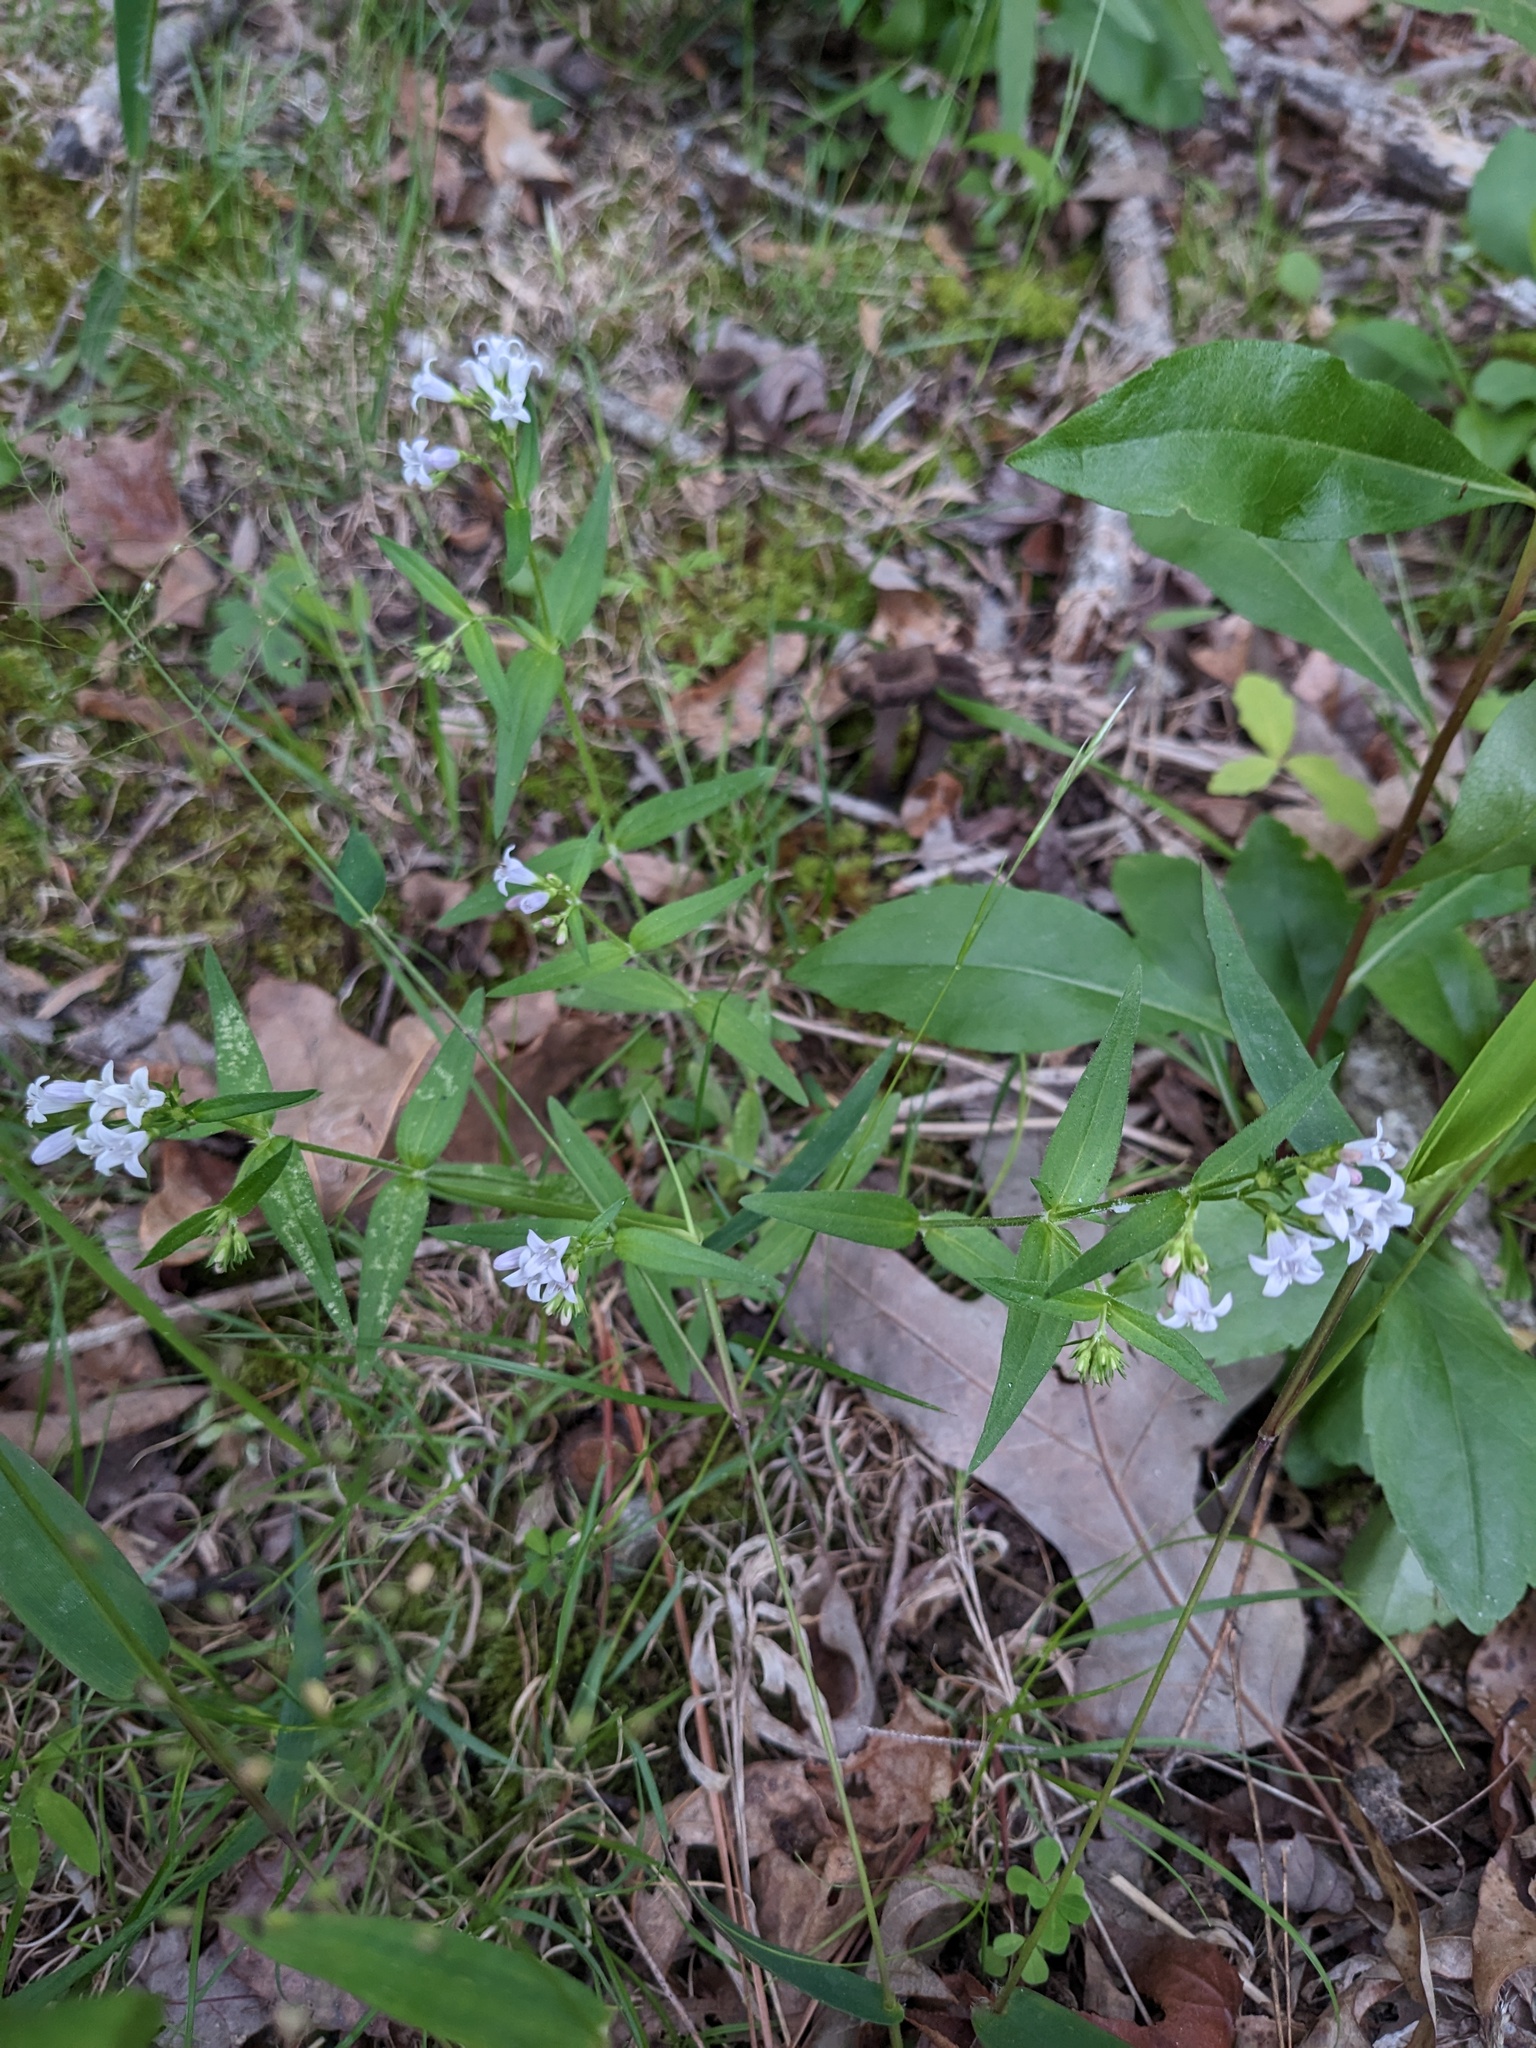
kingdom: Plantae
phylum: Tracheophyta
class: Magnoliopsida
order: Gentianales
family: Rubiaceae
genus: Houstonia
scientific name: Houstonia purpurea
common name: Summer bluet
